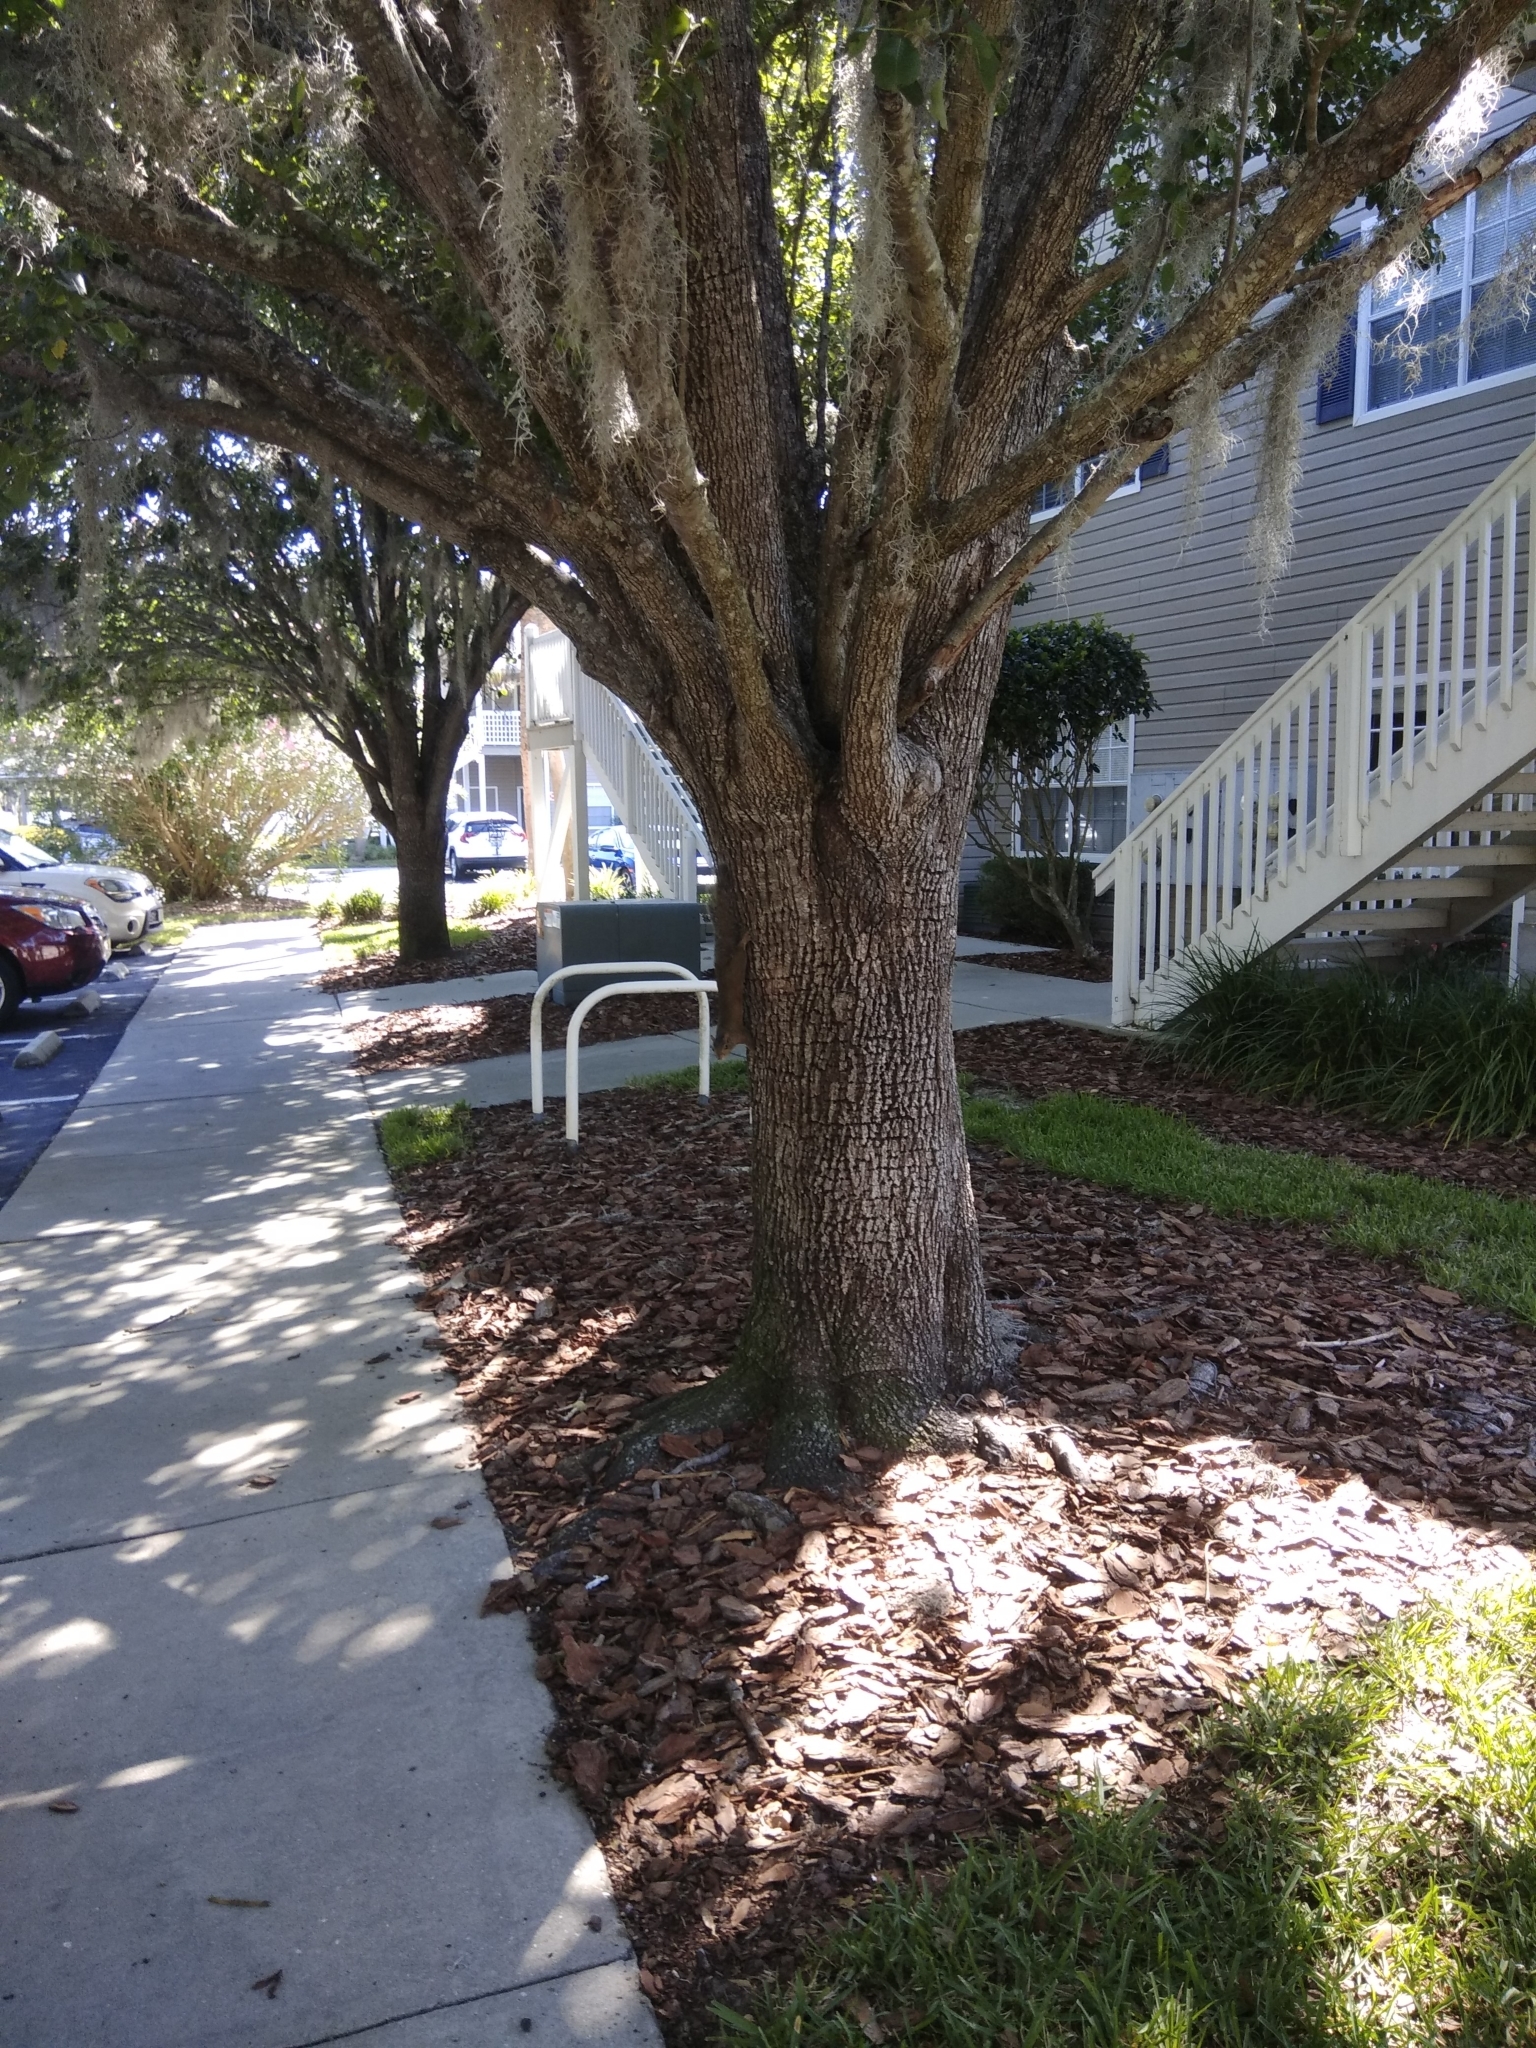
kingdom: Animalia
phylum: Chordata
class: Mammalia
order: Rodentia
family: Sciuridae
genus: Sciurus
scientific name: Sciurus carolinensis
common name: Eastern gray squirrel
